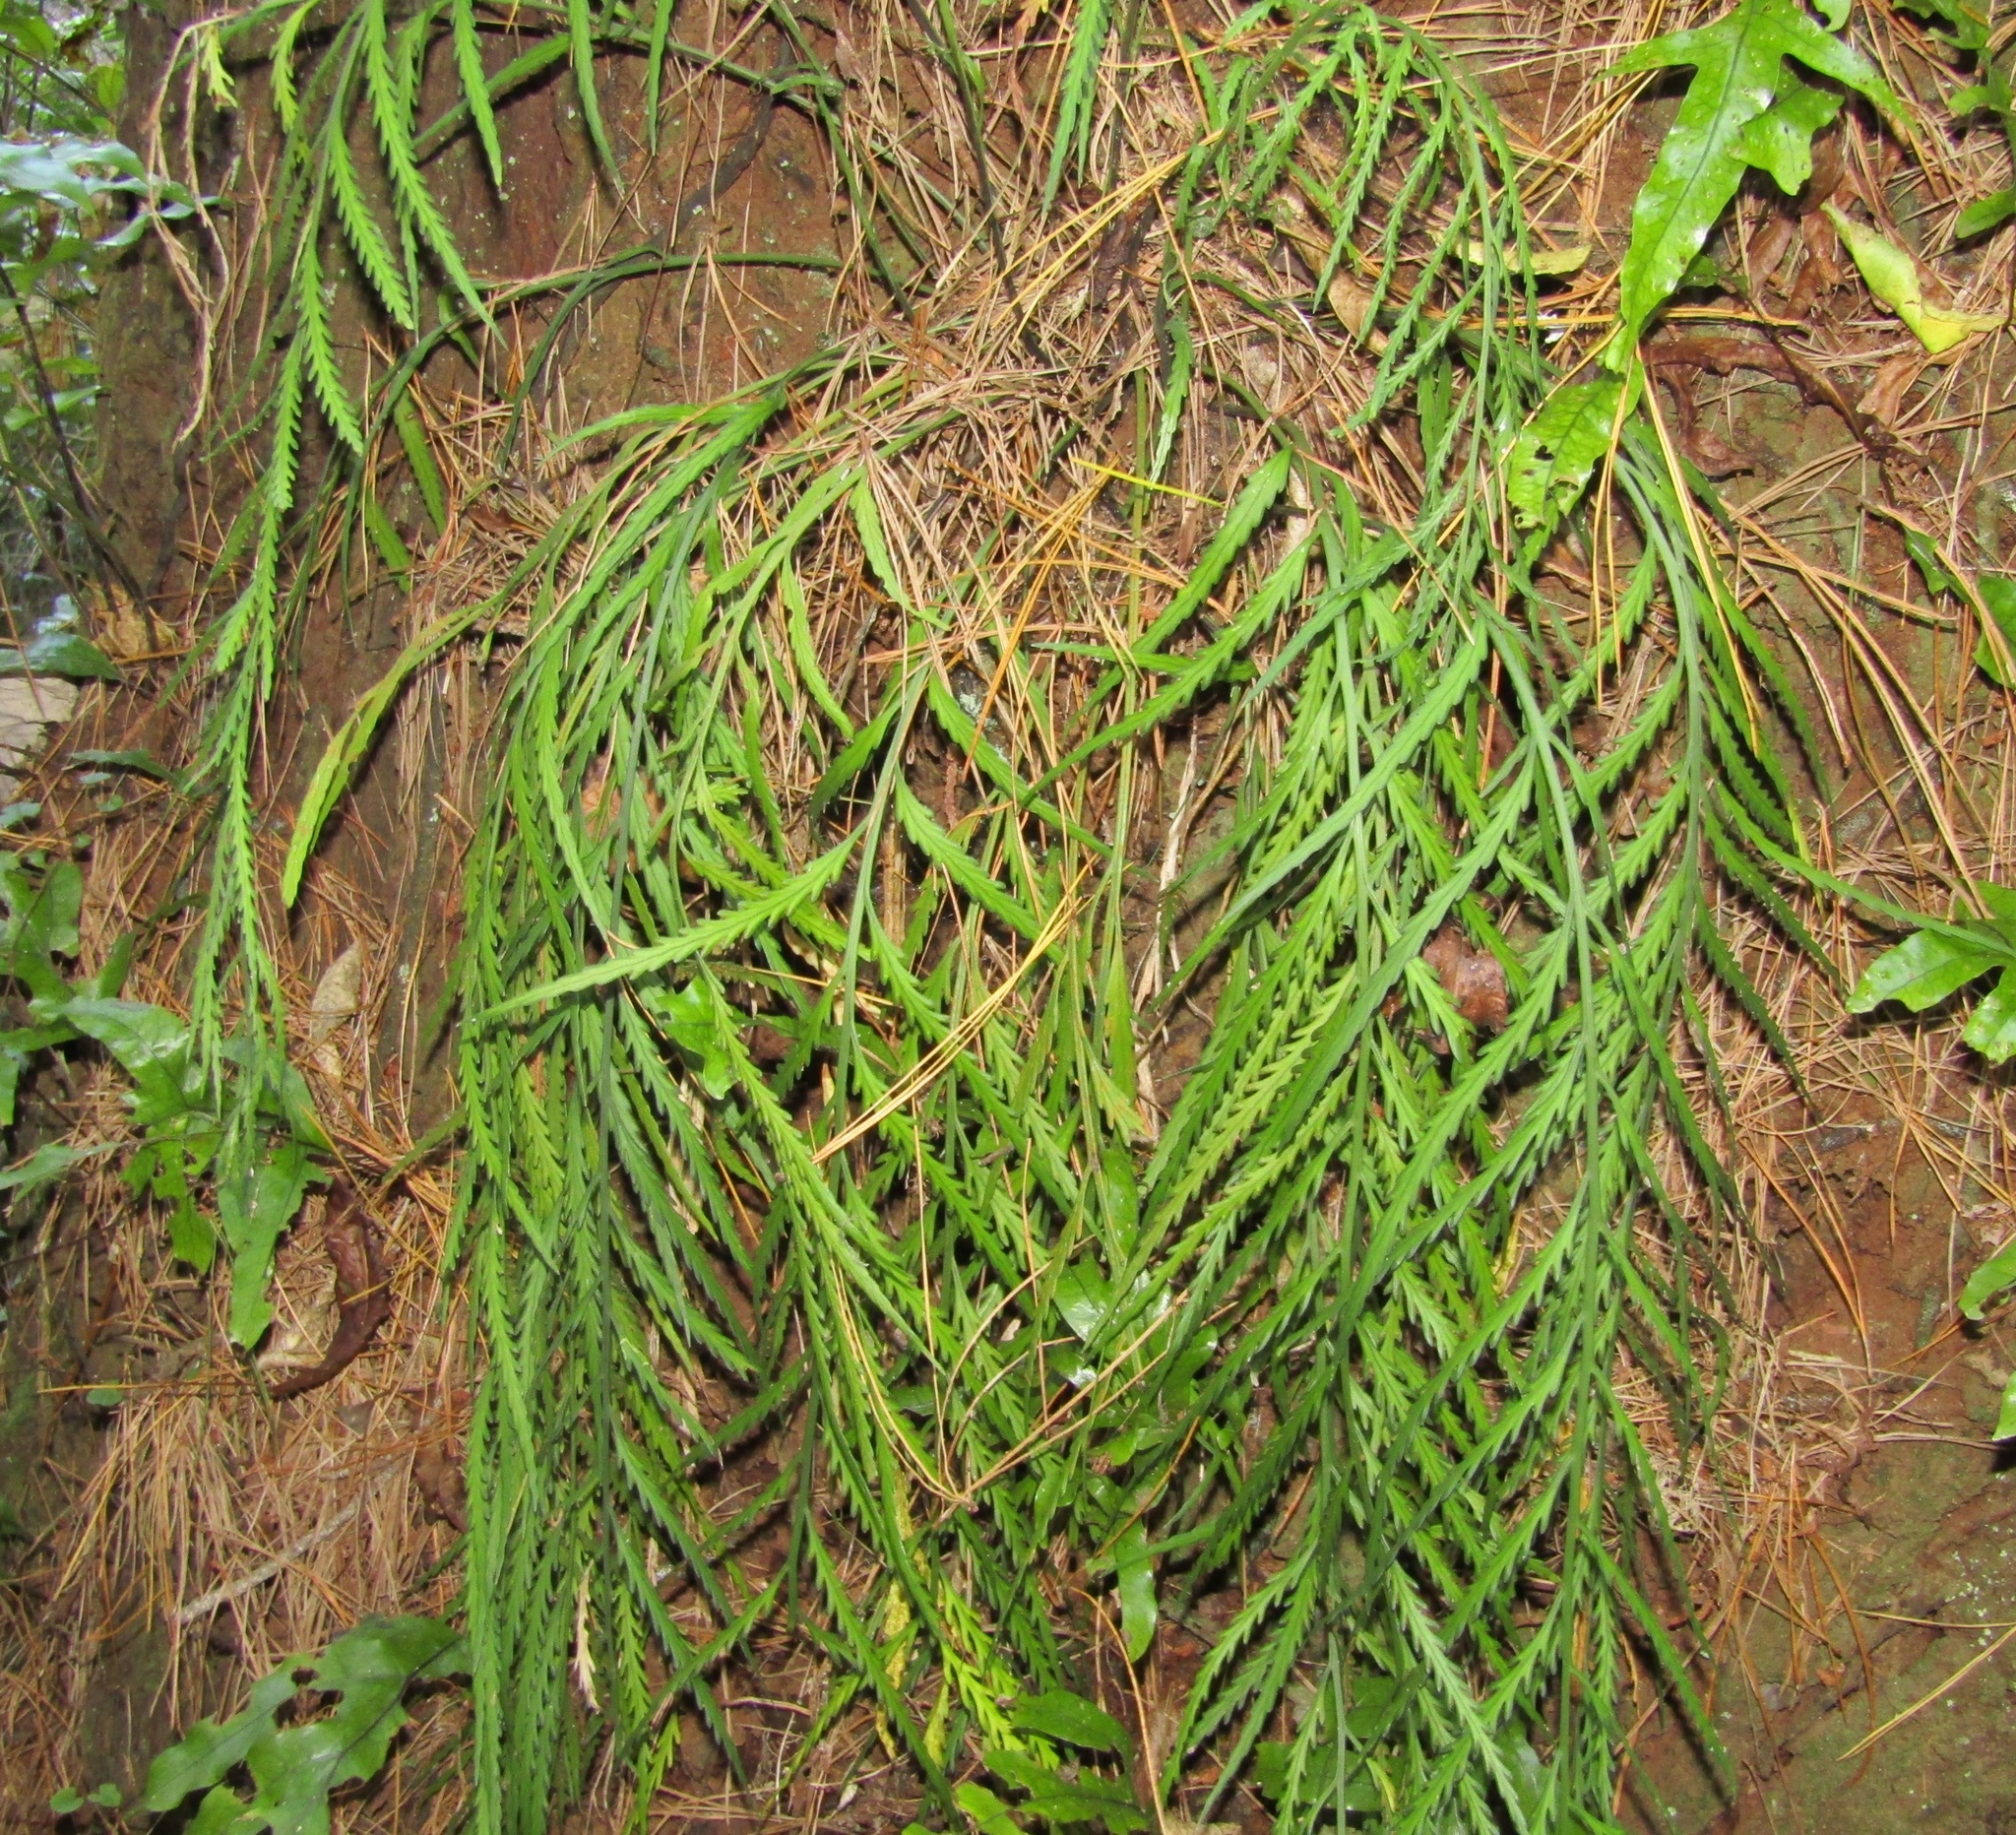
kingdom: Plantae
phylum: Tracheophyta
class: Polypodiopsida
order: Polypodiales
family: Aspleniaceae
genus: Asplenium
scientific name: Asplenium flaccidum
